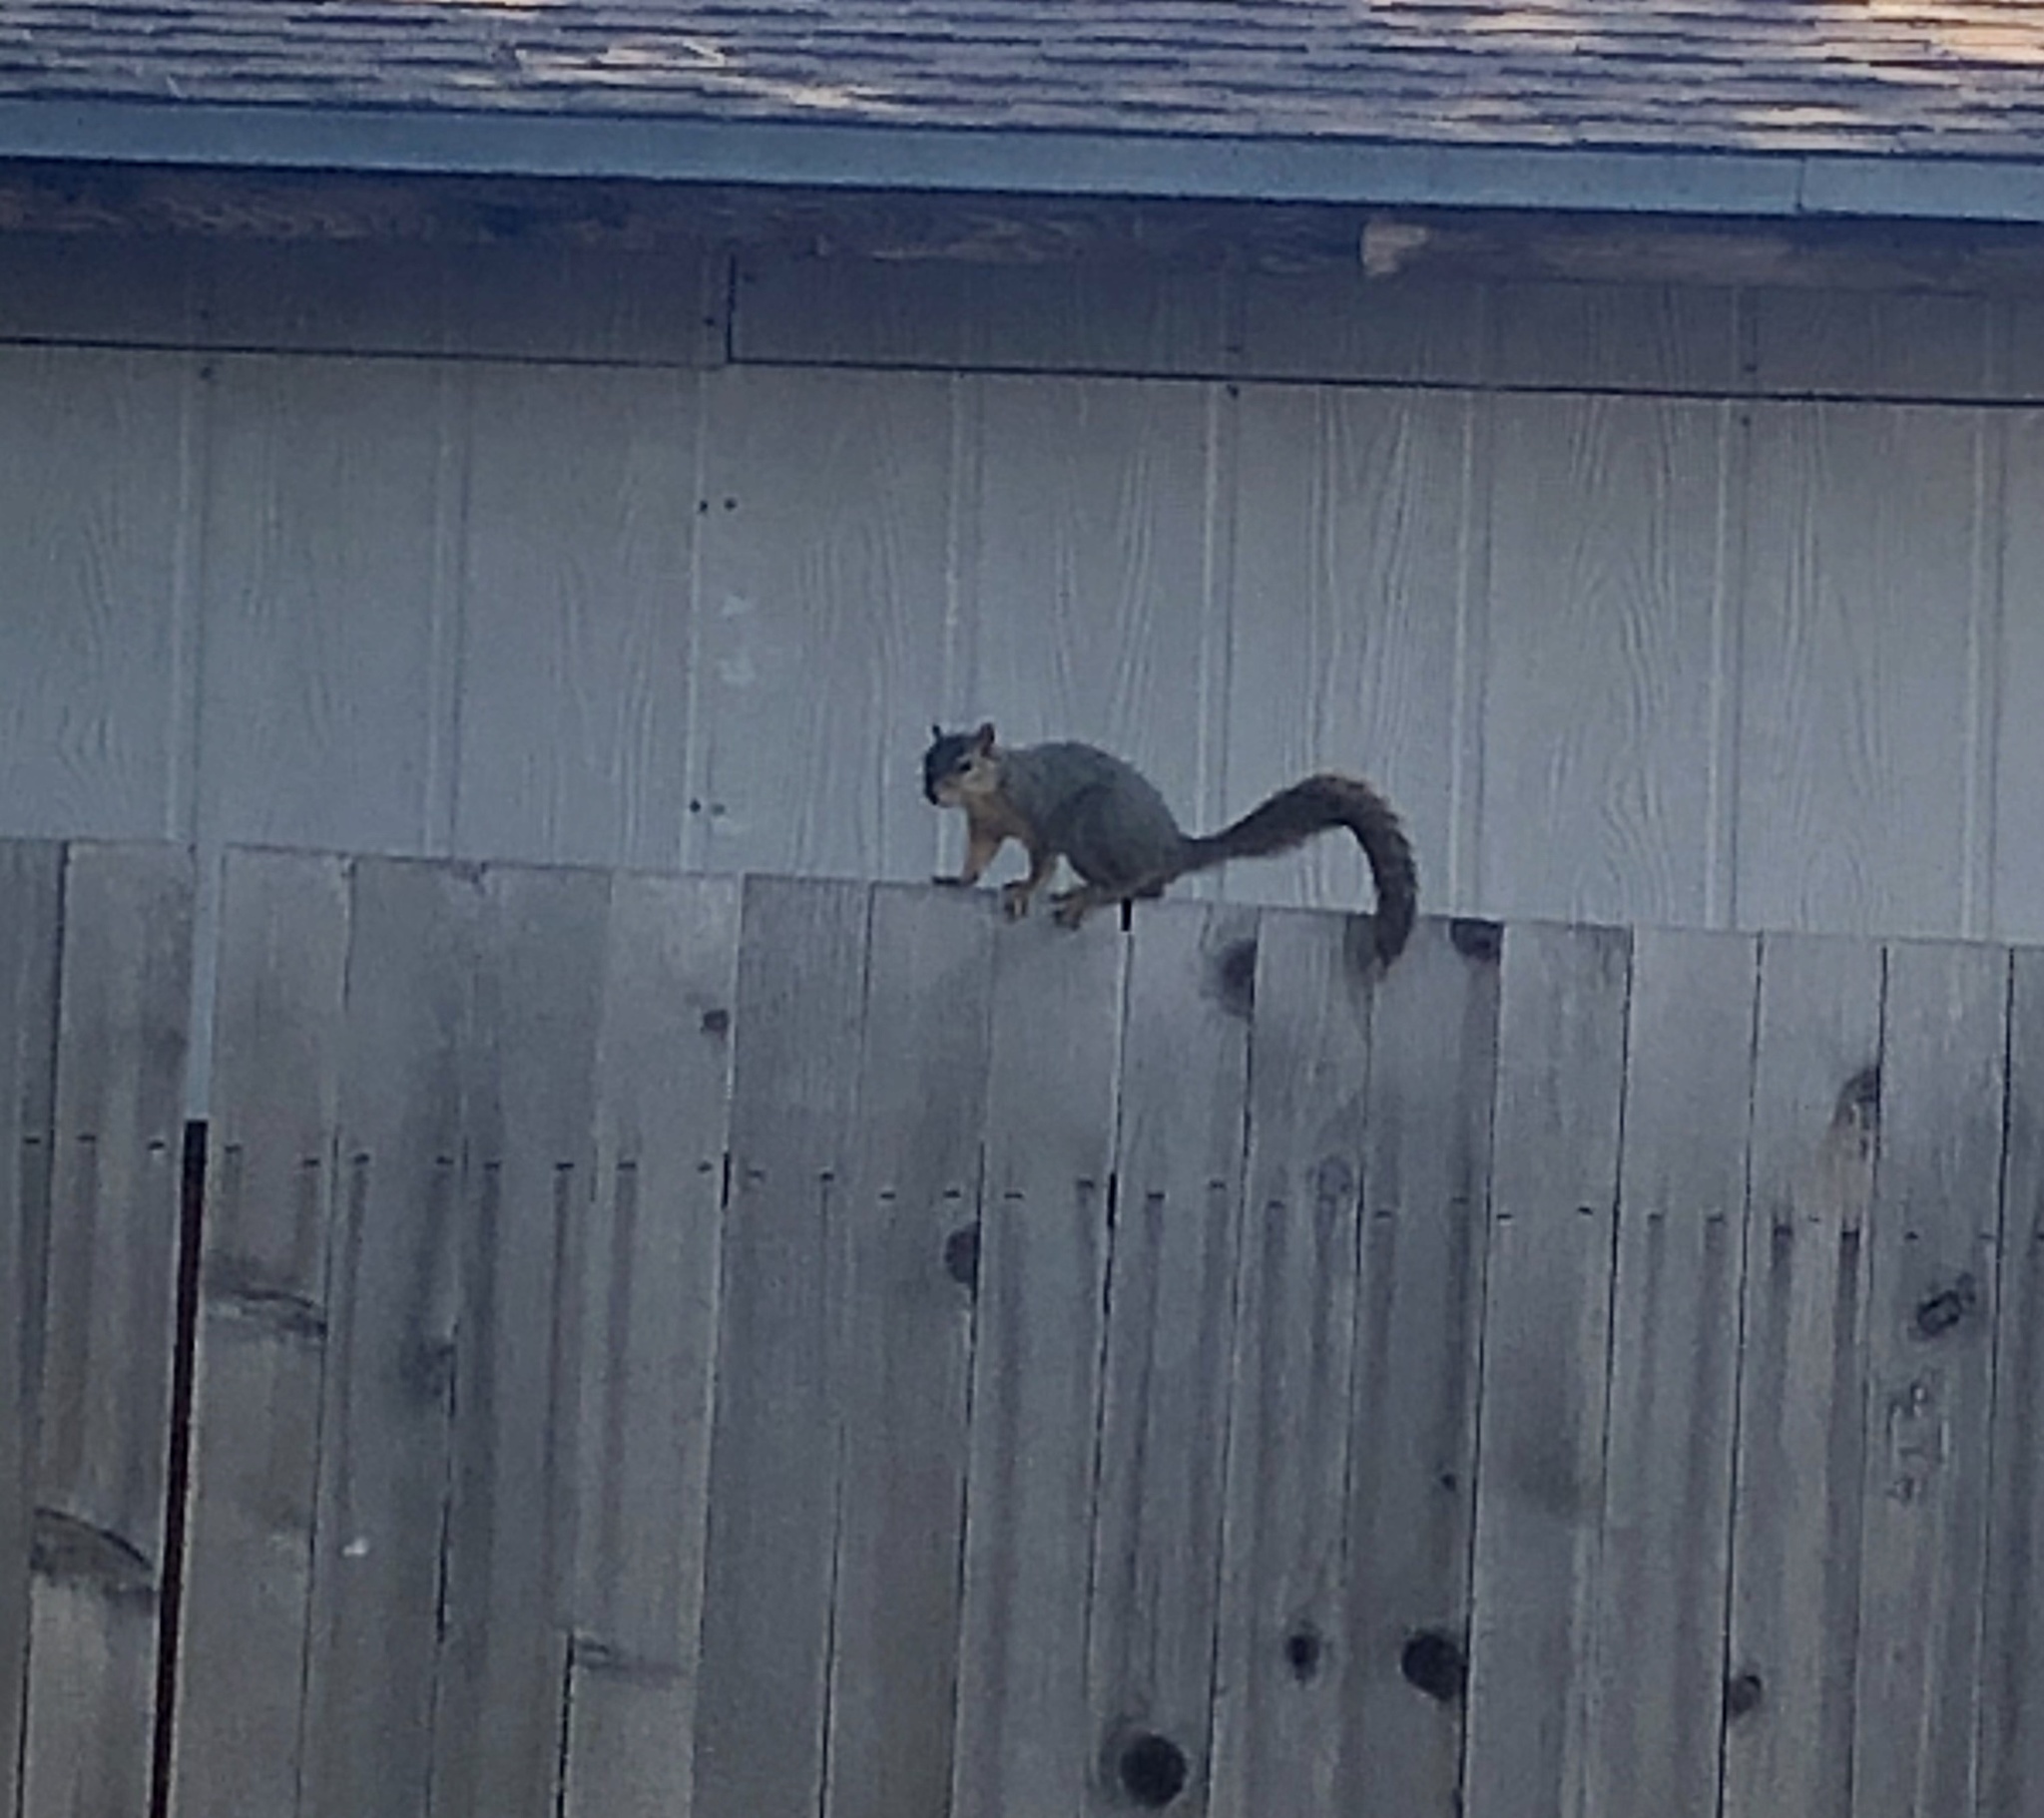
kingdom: Animalia
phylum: Chordata
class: Mammalia
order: Rodentia
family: Sciuridae
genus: Sciurus
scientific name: Sciurus niger
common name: Fox squirrel
